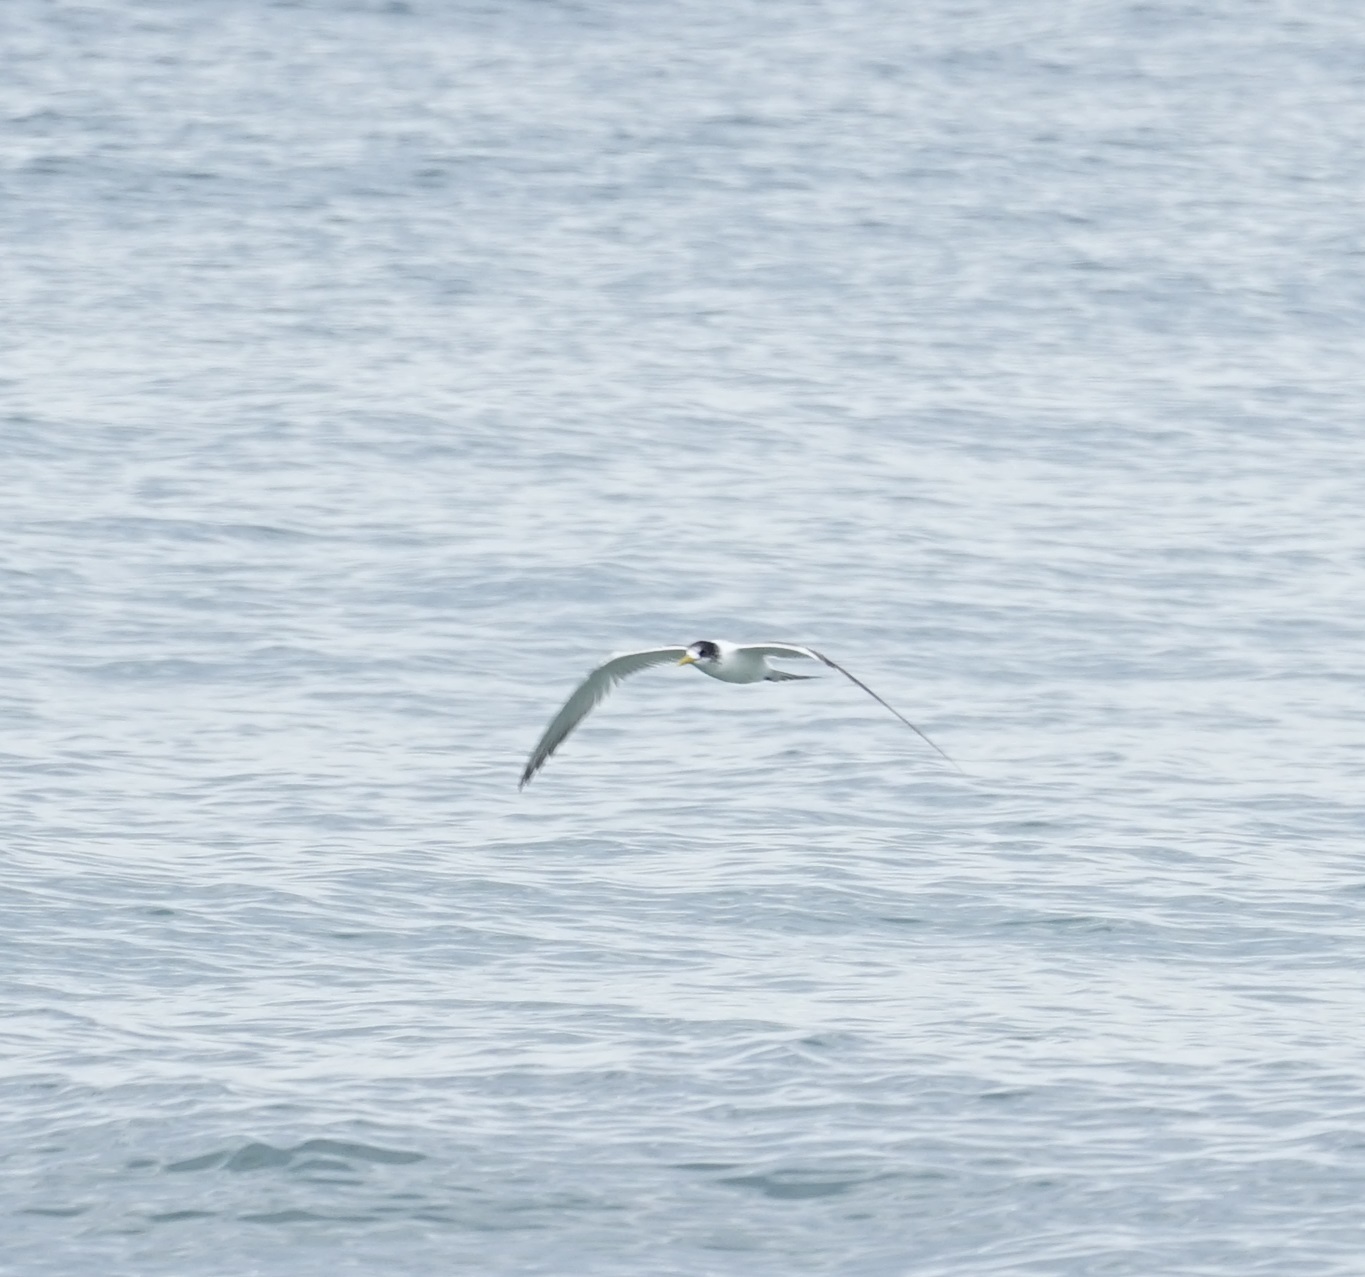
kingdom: Animalia
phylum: Chordata
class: Aves
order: Charadriiformes
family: Laridae
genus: Thalasseus
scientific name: Thalasseus bergii
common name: Greater crested tern
